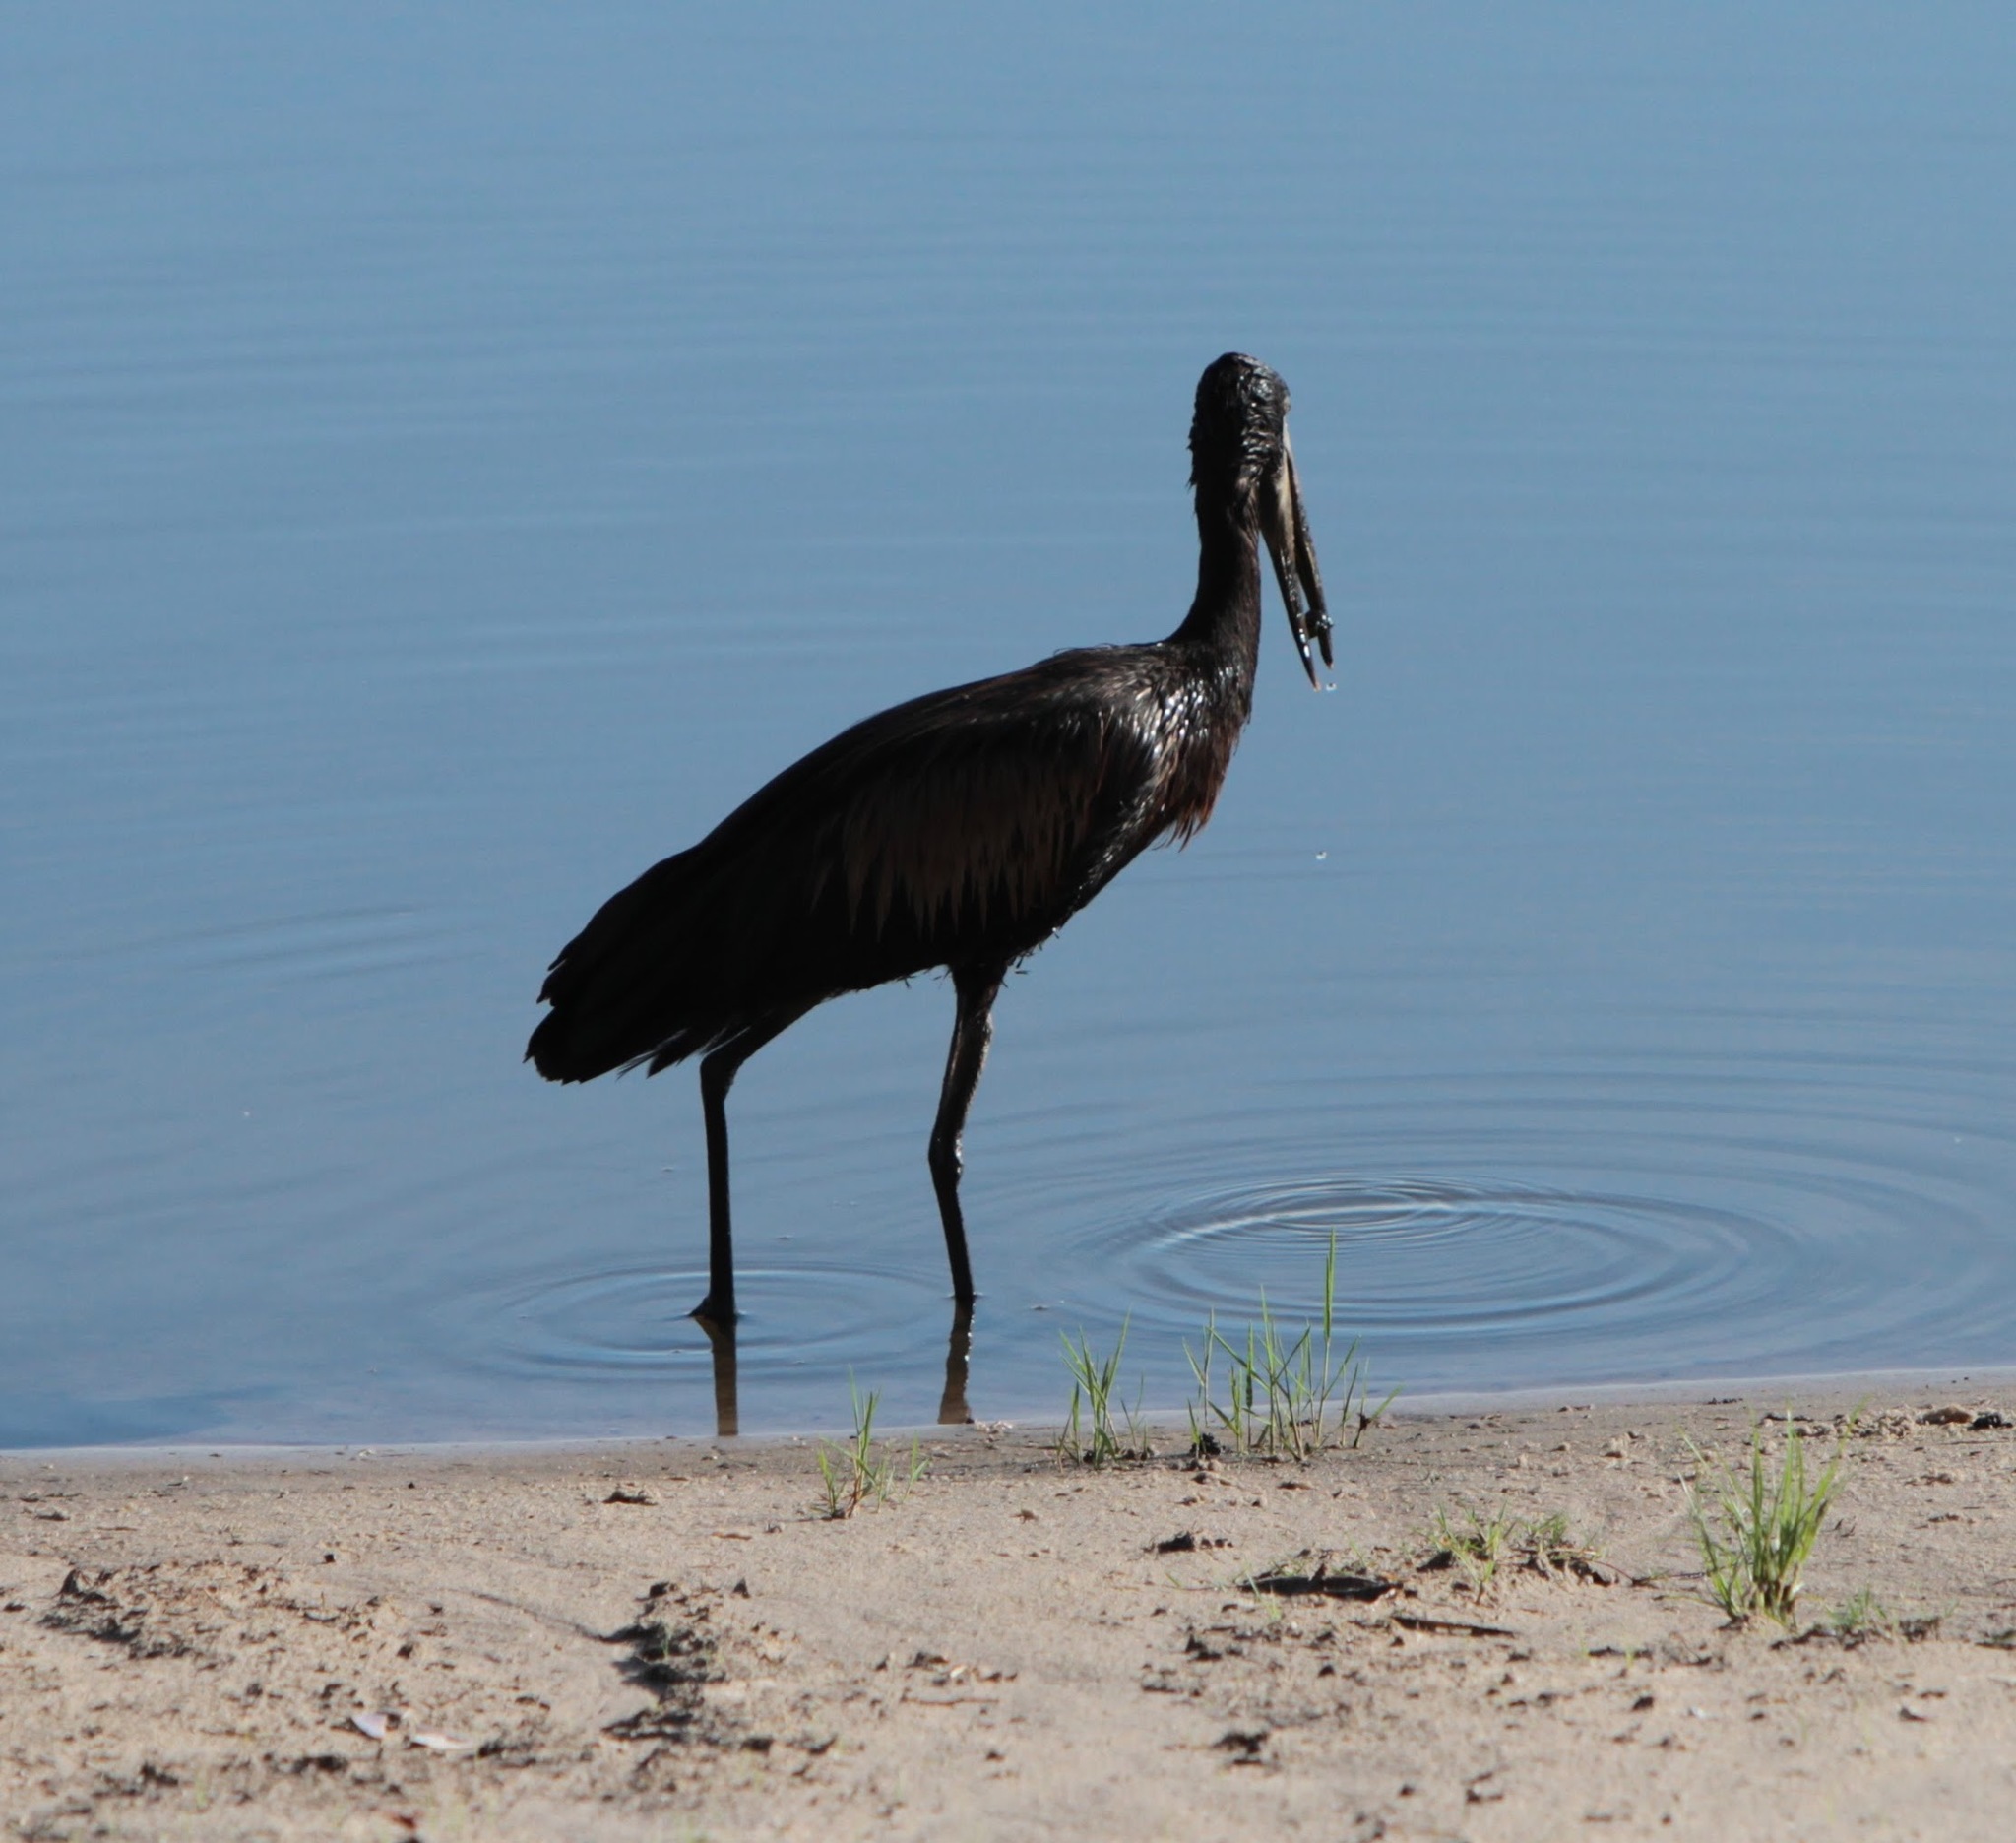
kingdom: Animalia
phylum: Chordata
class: Aves
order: Ciconiiformes
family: Ciconiidae
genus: Anastomus
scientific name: Anastomus lamelligerus
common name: African openbill
